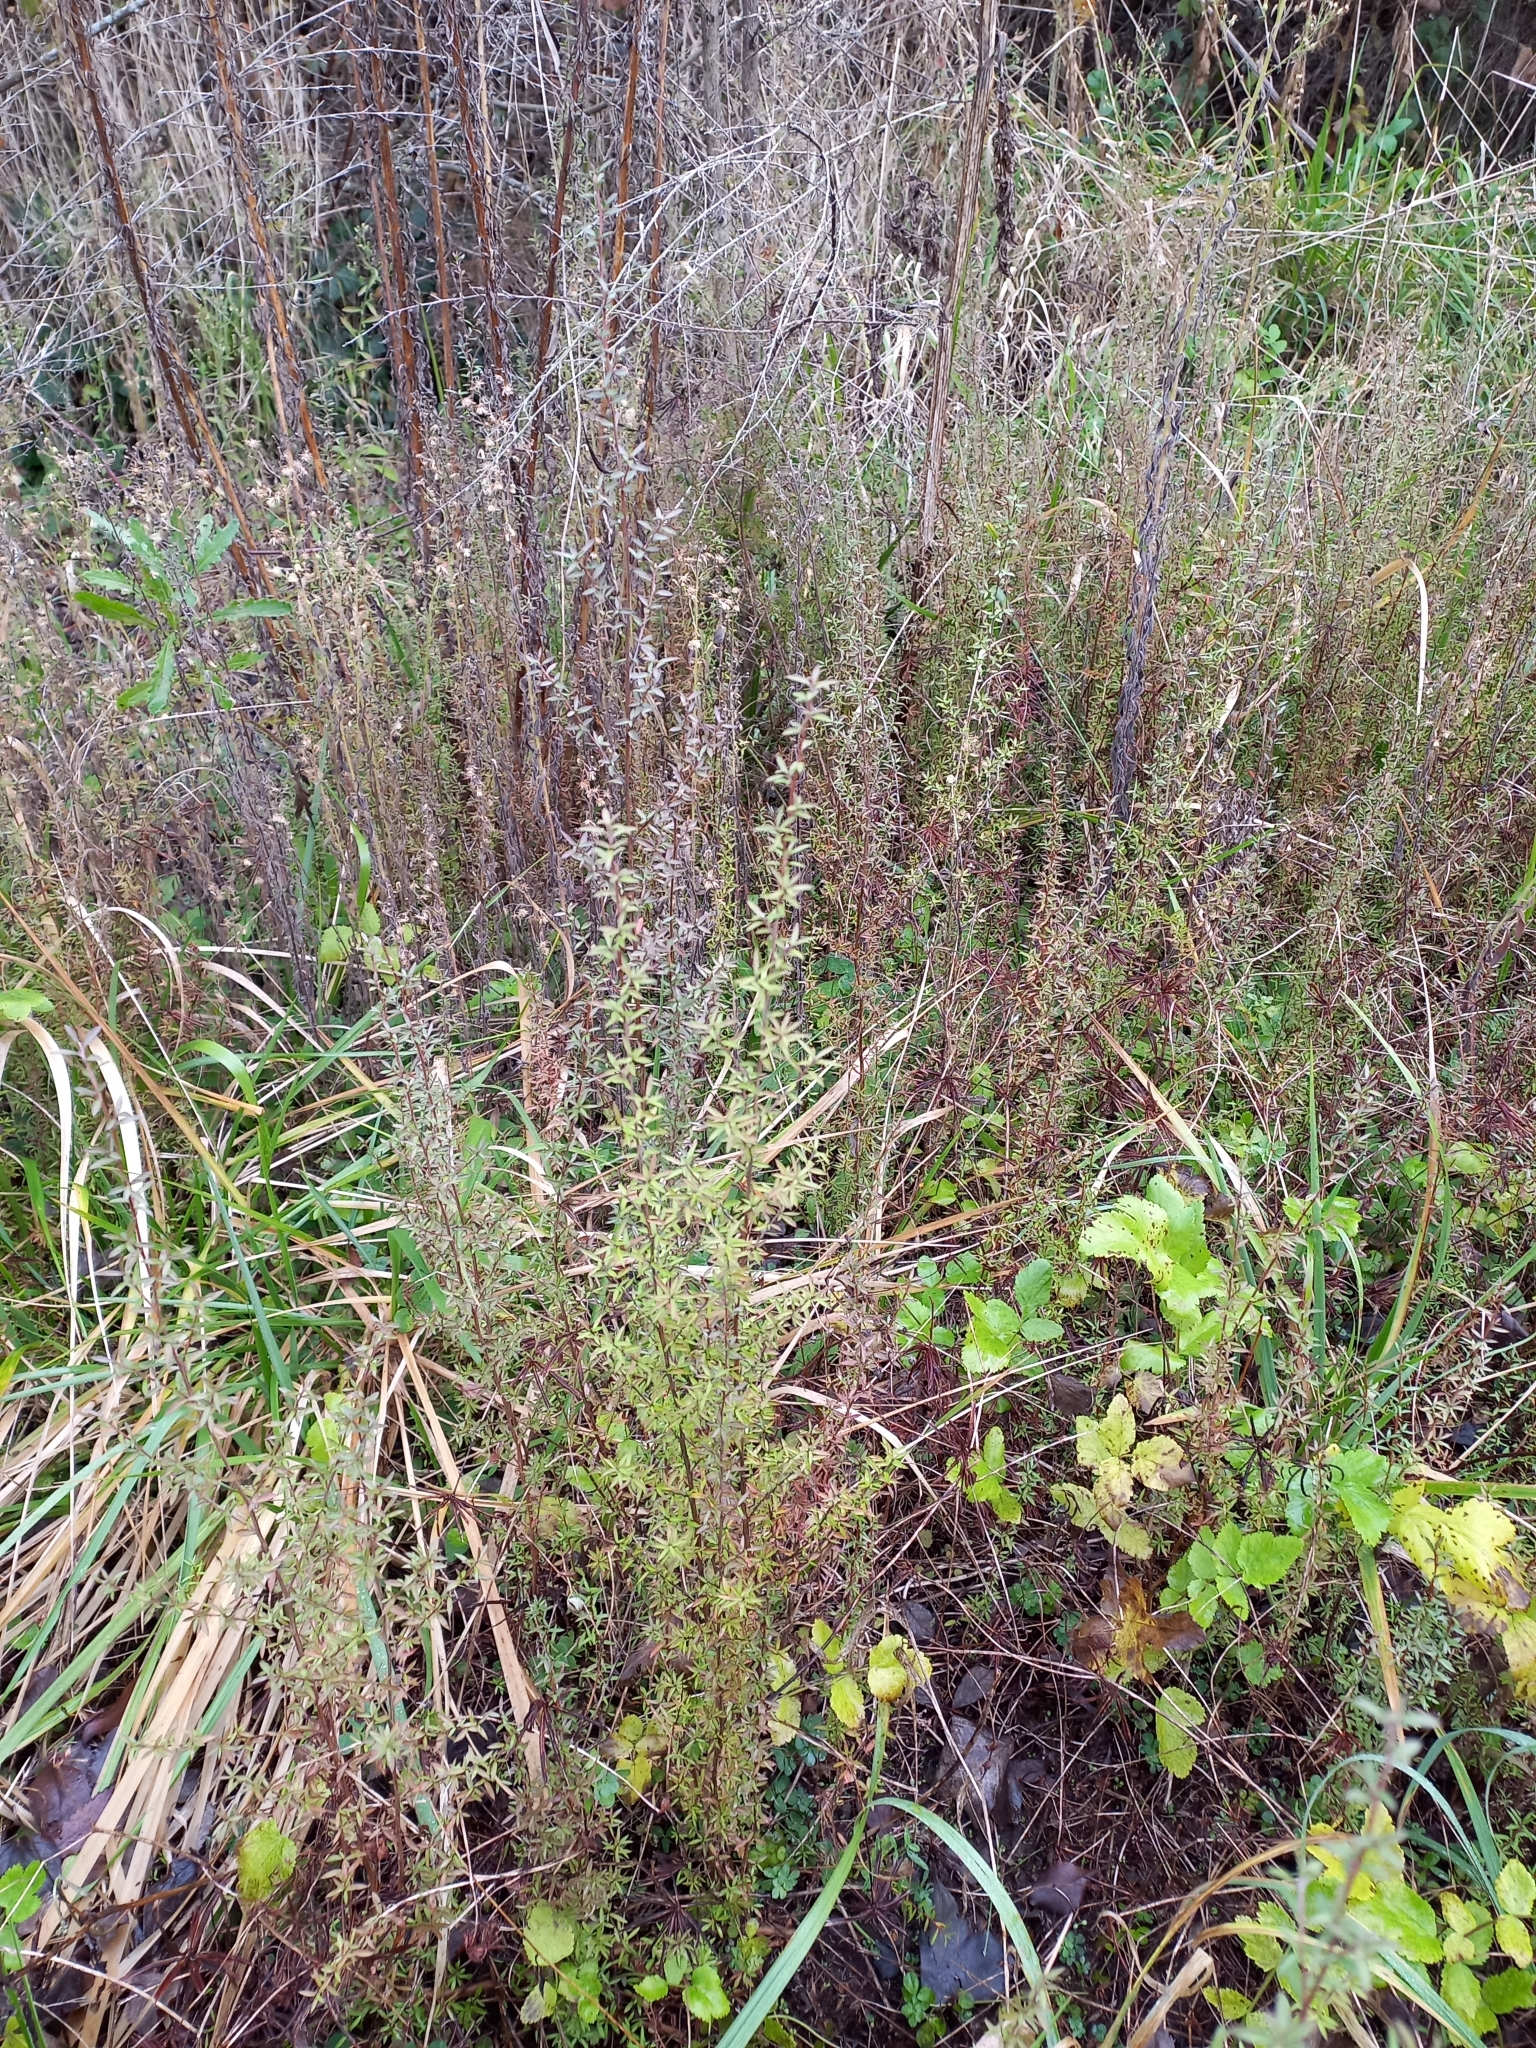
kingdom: Plantae
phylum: Tracheophyta
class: Magnoliopsida
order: Myrtales
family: Myrtaceae
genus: Leptospermum
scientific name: Leptospermum scoparium
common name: Broom tea-tree
